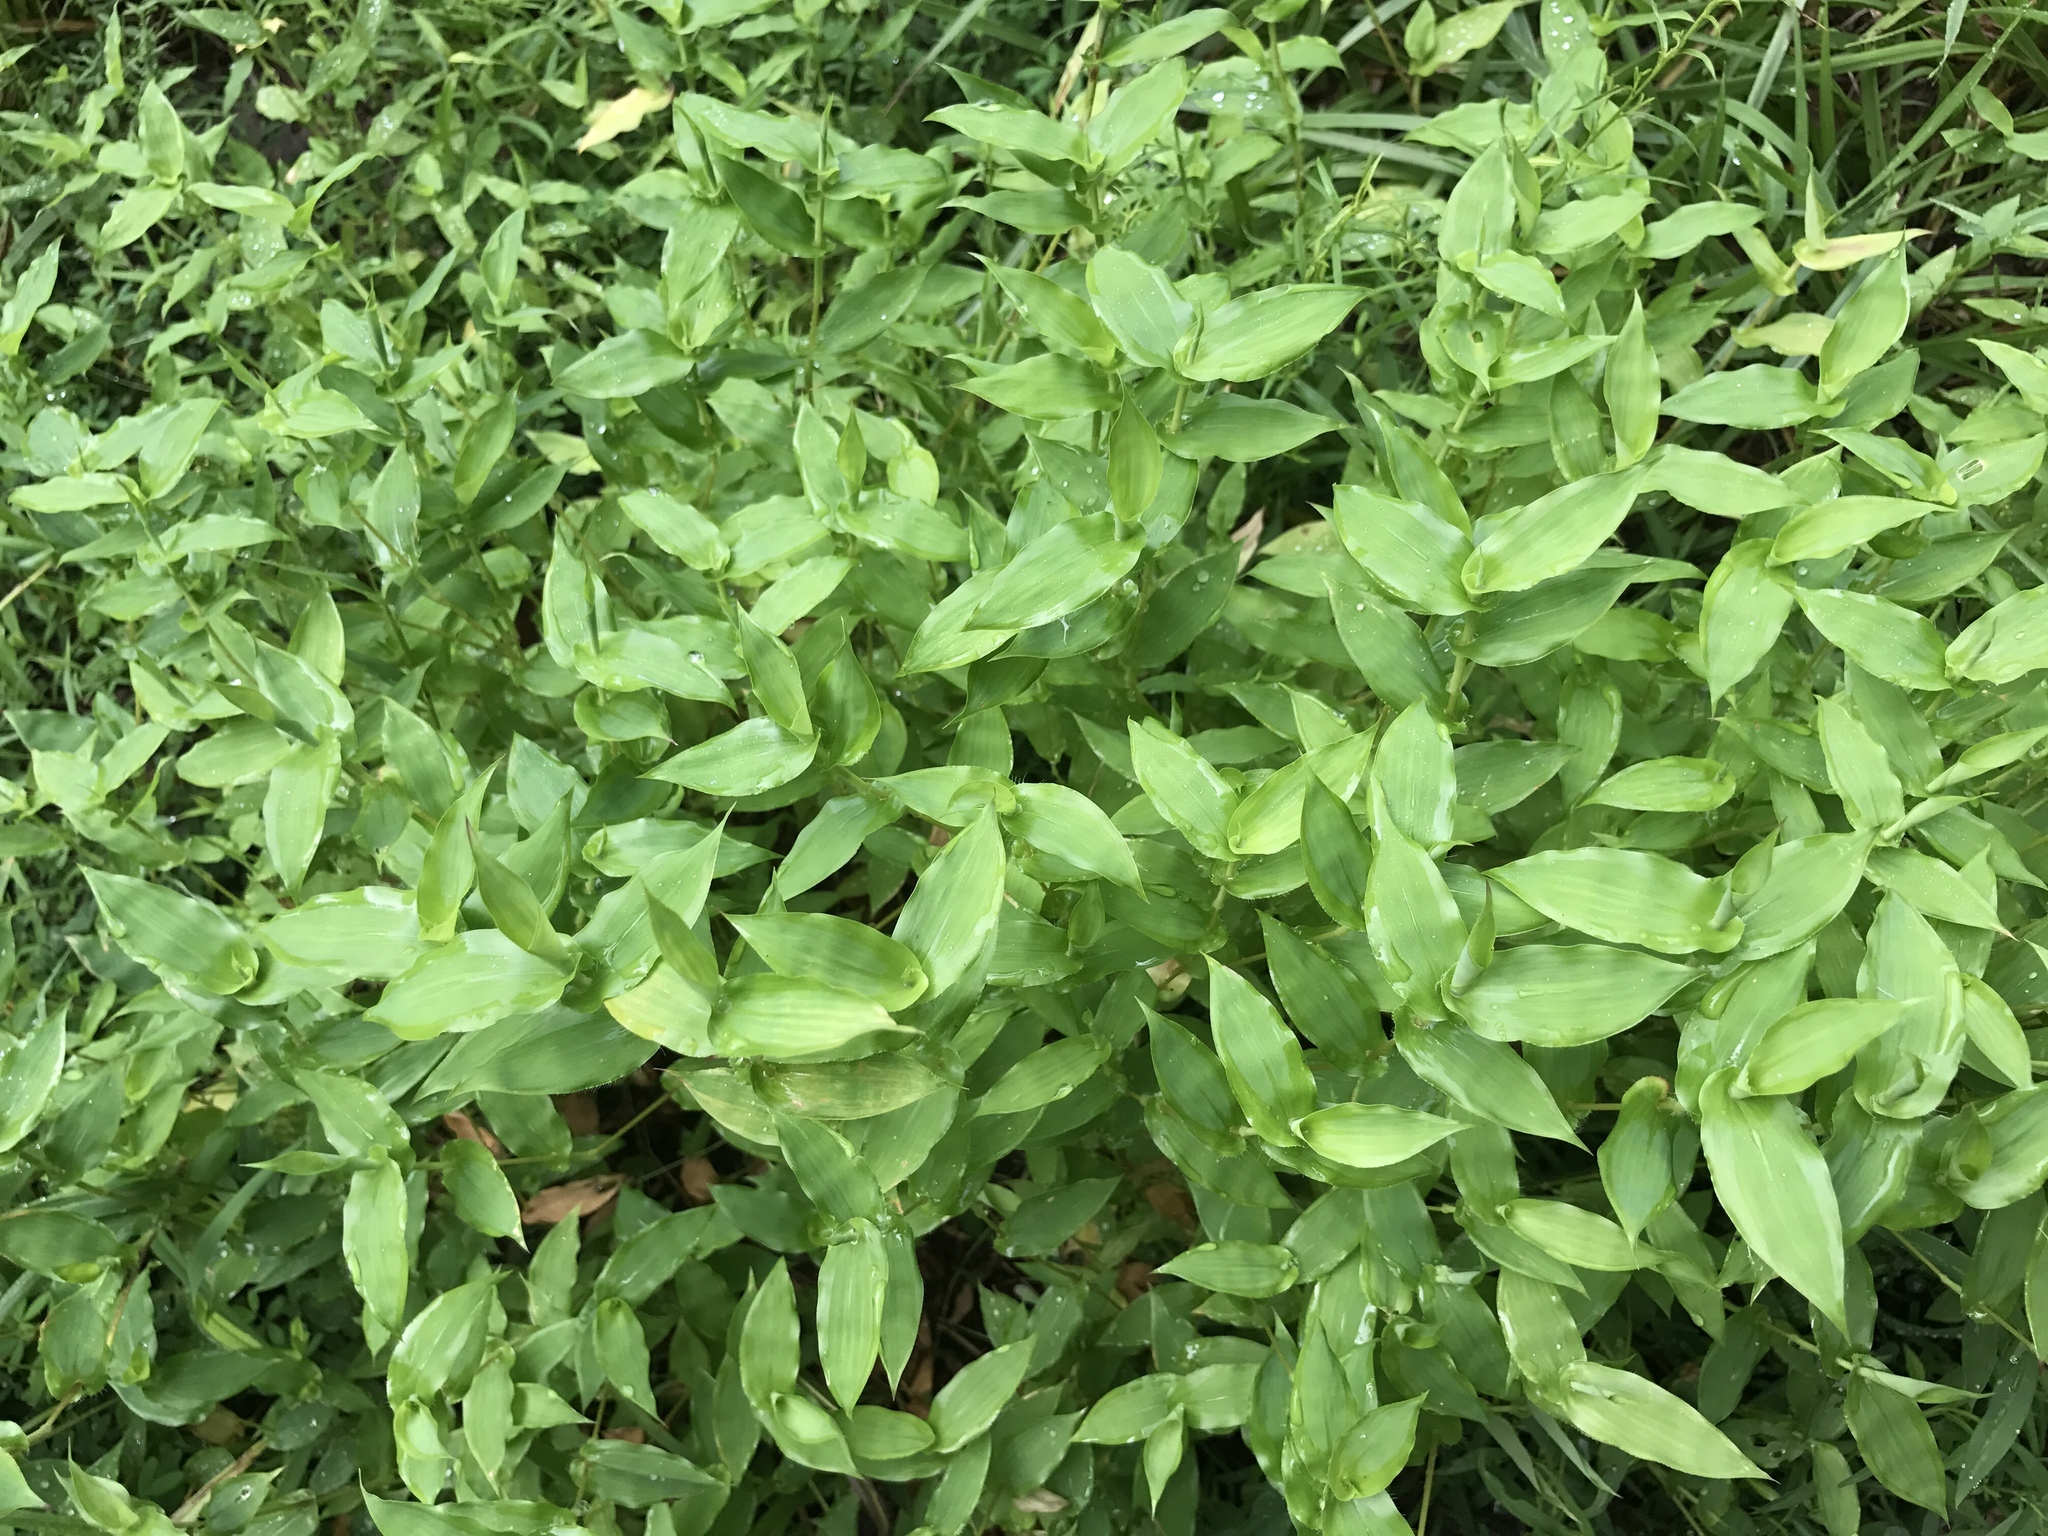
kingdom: Plantae
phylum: Tracheophyta
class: Liliopsida
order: Poales
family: Poaceae
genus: Arthraxon
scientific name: Arthraxon hispidus
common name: Small carpgrass
